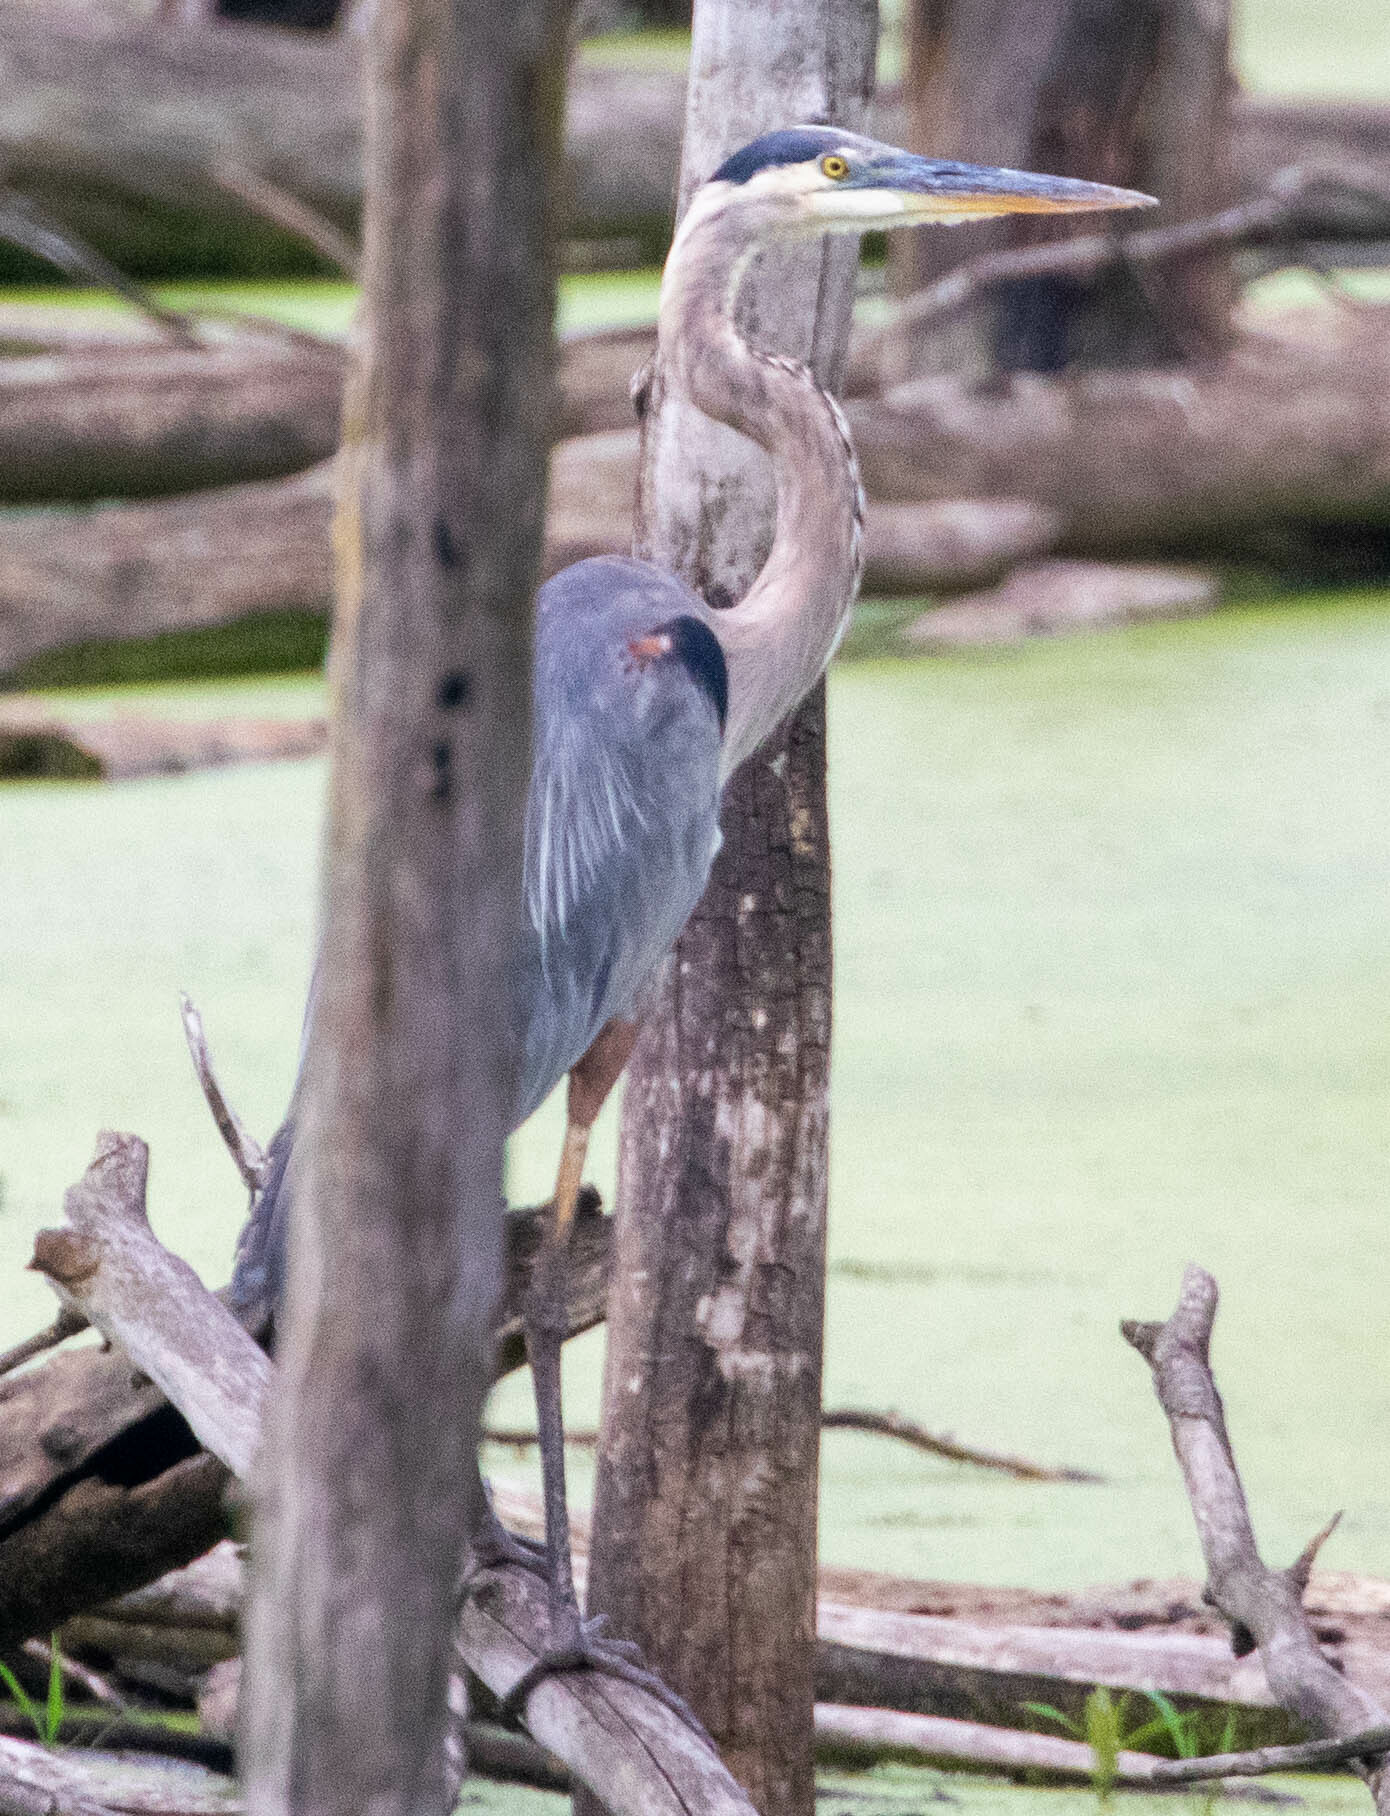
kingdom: Animalia
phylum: Chordata
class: Aves
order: Pelecaniformes
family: Ardeidae
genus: Ardea
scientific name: Ardea herodias
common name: Great blue heron
